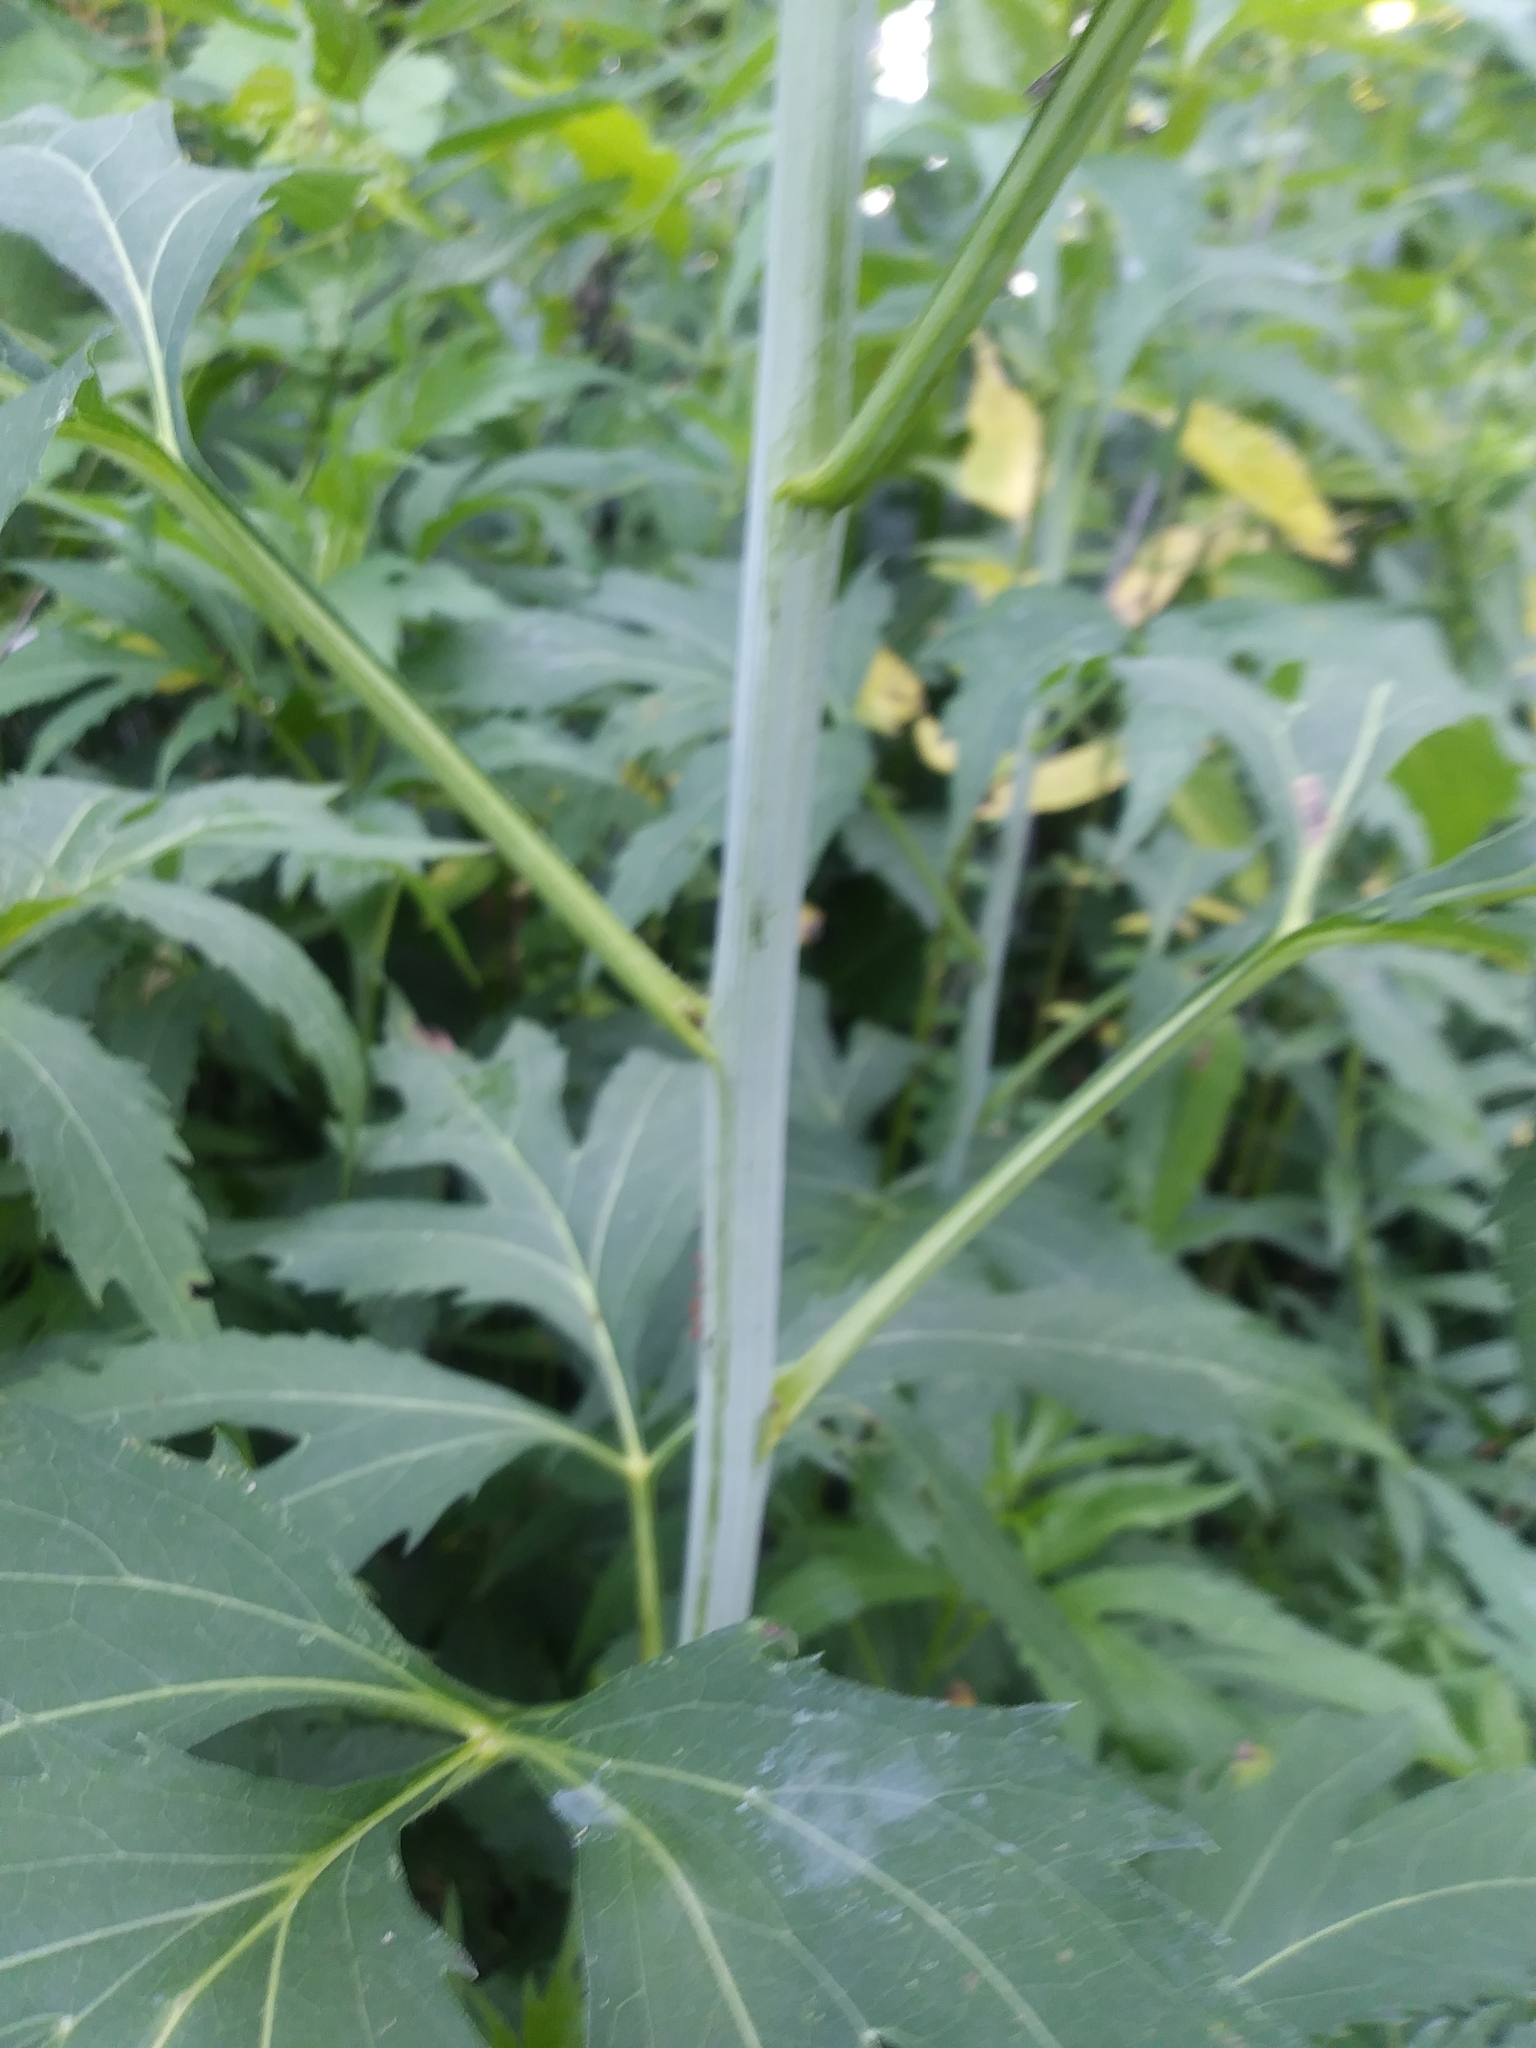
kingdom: Plantae
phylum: Tracheophyta
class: Magnoliopsida
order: Asterales
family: Asteraceae
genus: Rudbeckia
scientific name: Rudbeckia laciniata
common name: Coneflower
